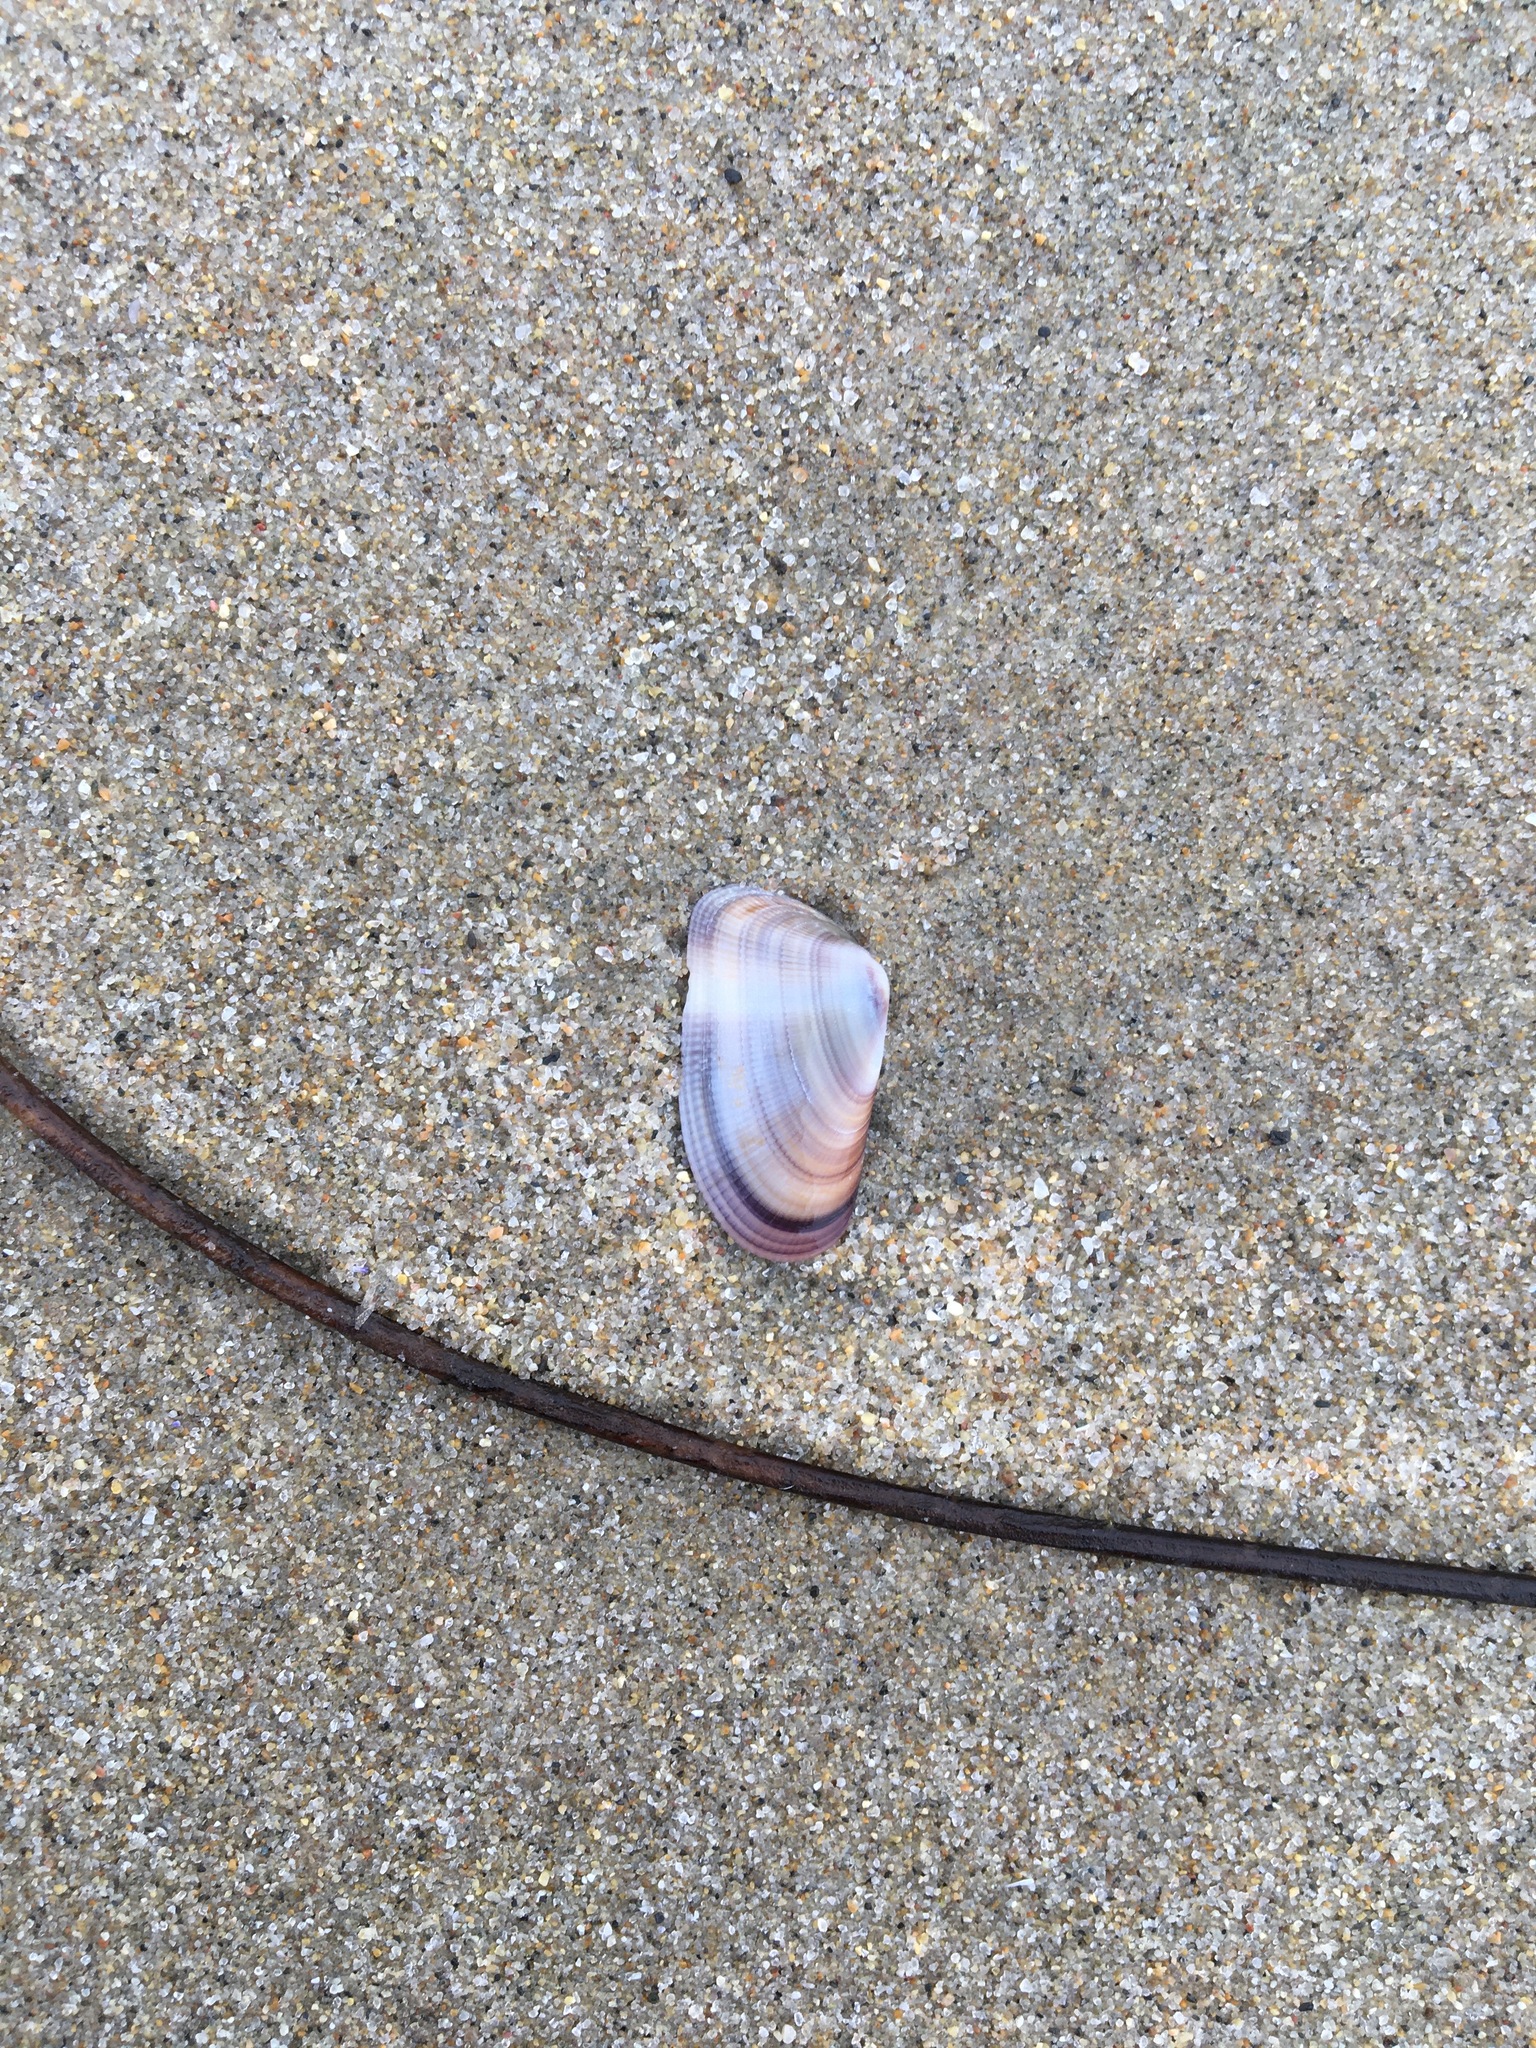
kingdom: Animalia
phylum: Mollusca
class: Bivalvia
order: Cardiida
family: Donacidae
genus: Donax
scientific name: Donax gouldii
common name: Gould beanclam
